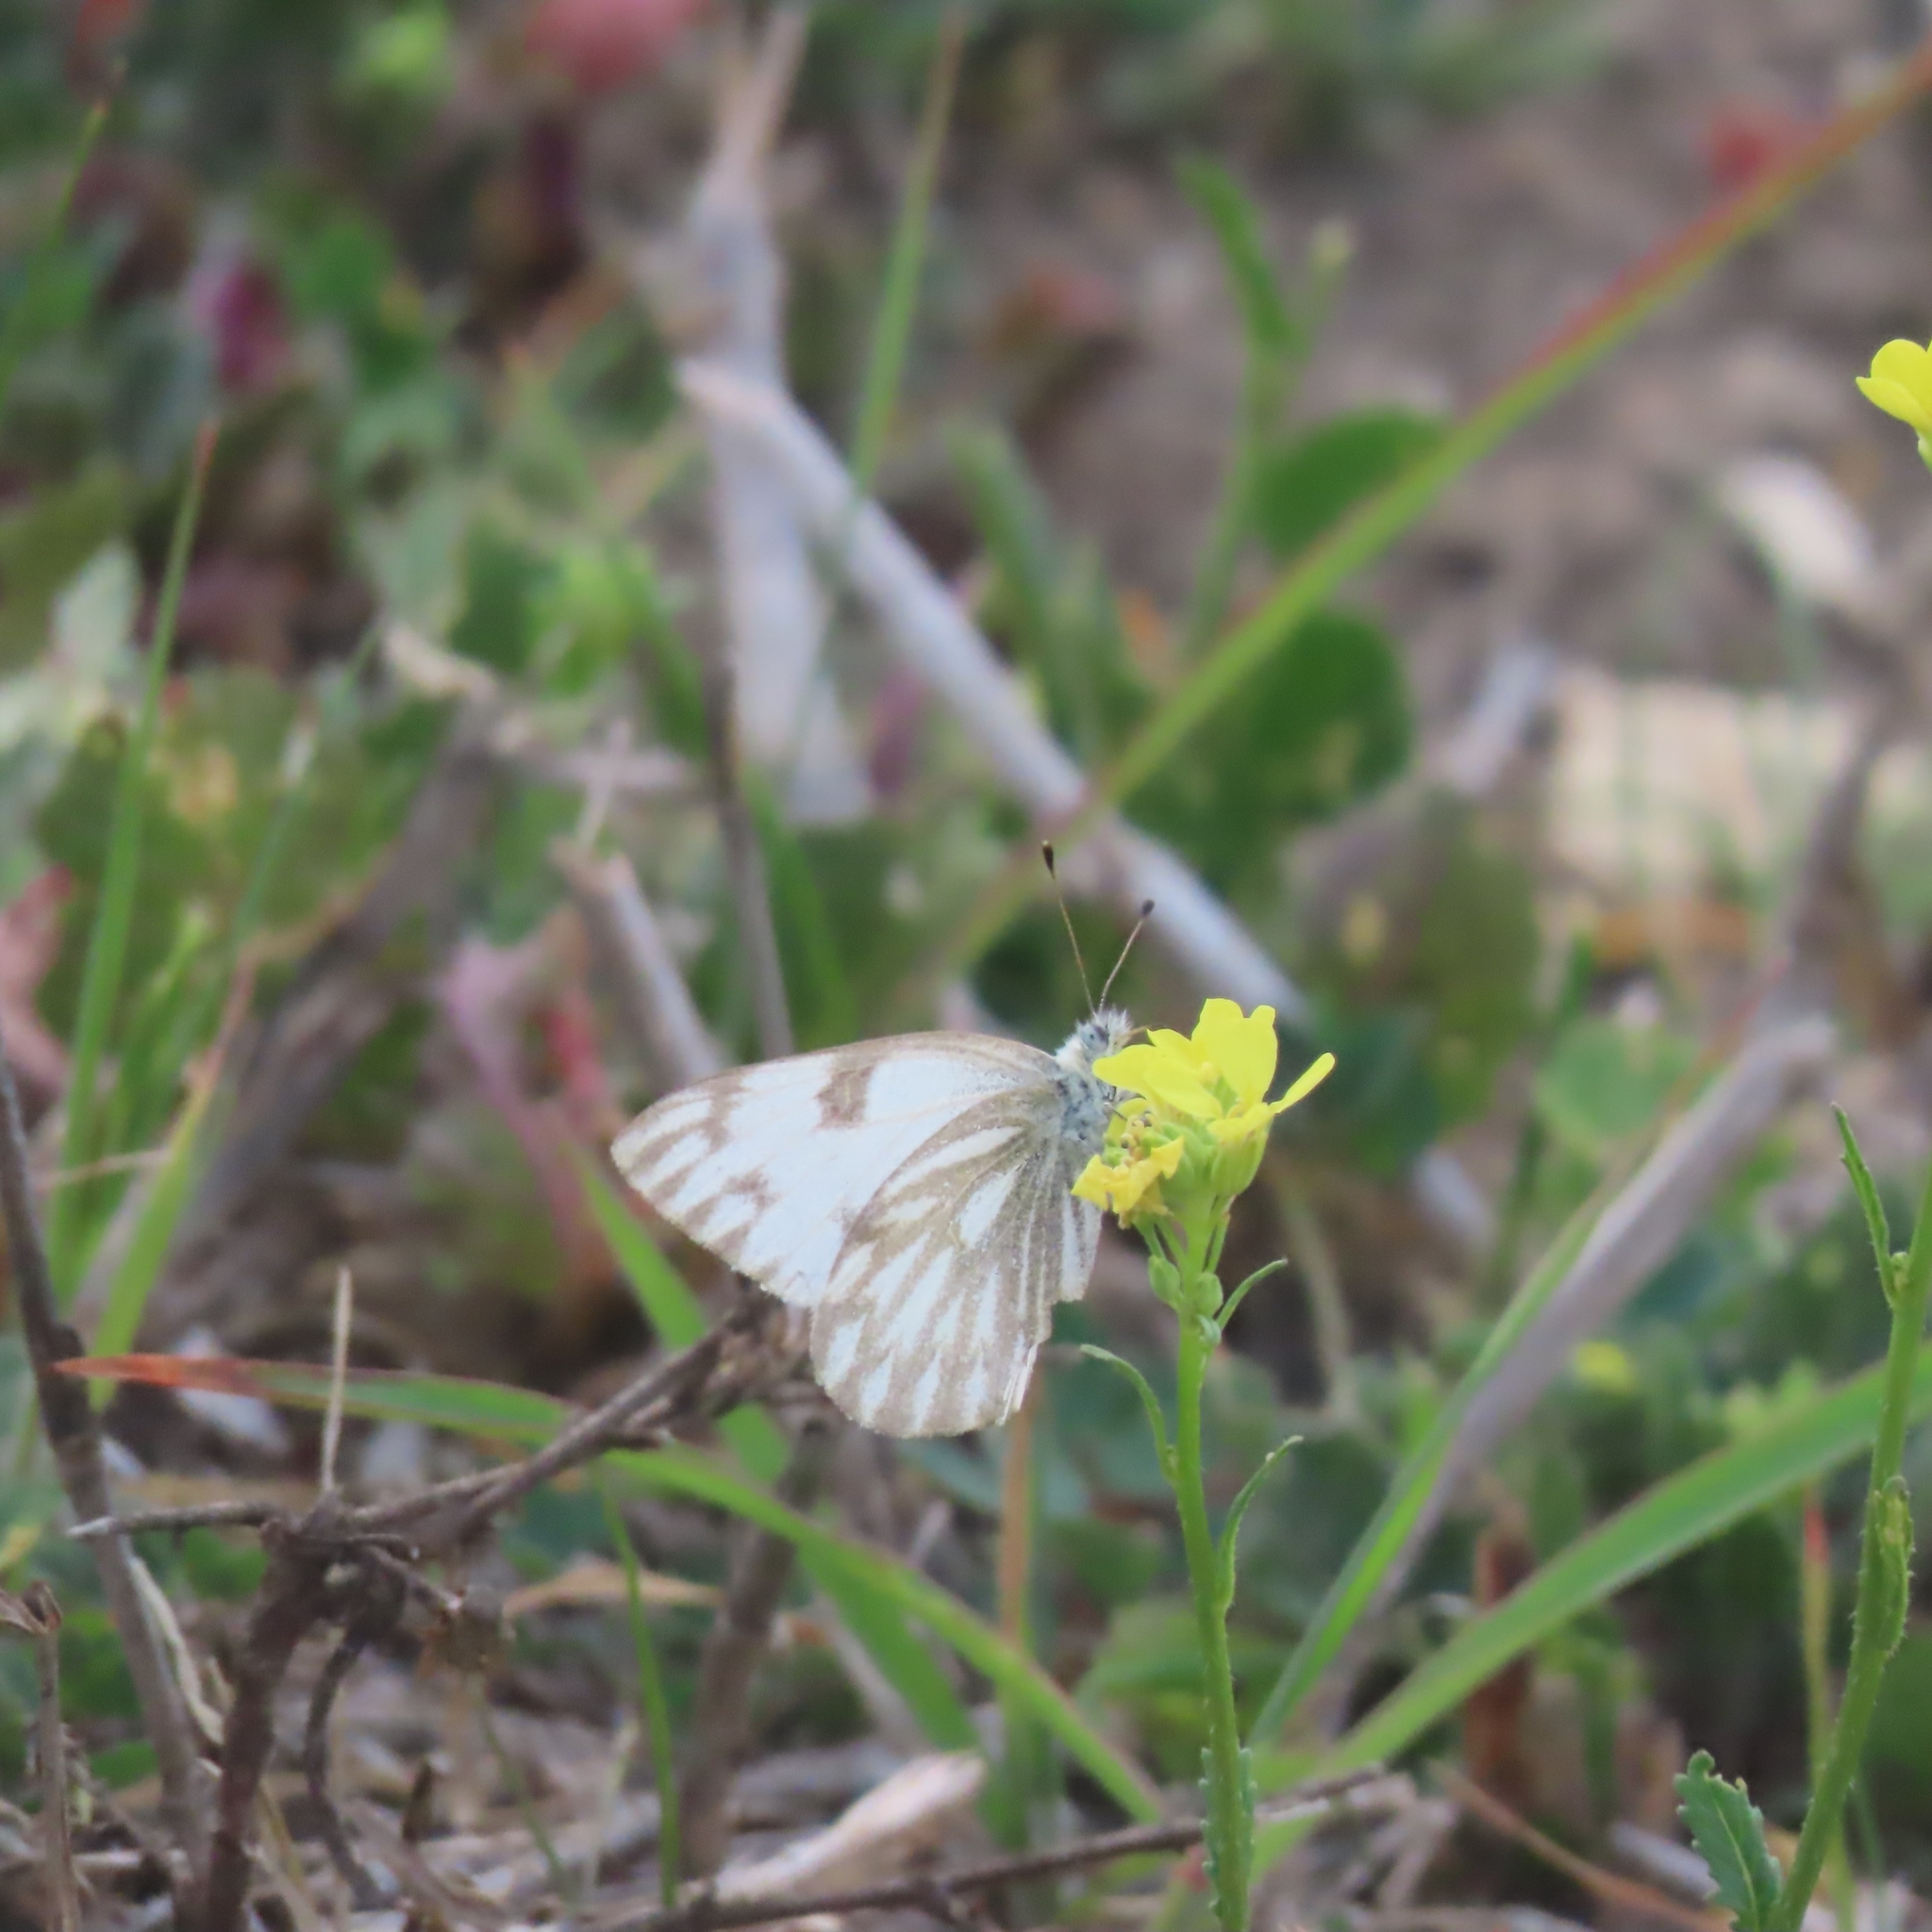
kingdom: Animalia
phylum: Arthropoda
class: Insecta
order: Lepidoptera
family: Pieridae
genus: Pontia
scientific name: Pontia protodice
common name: Checkered white
